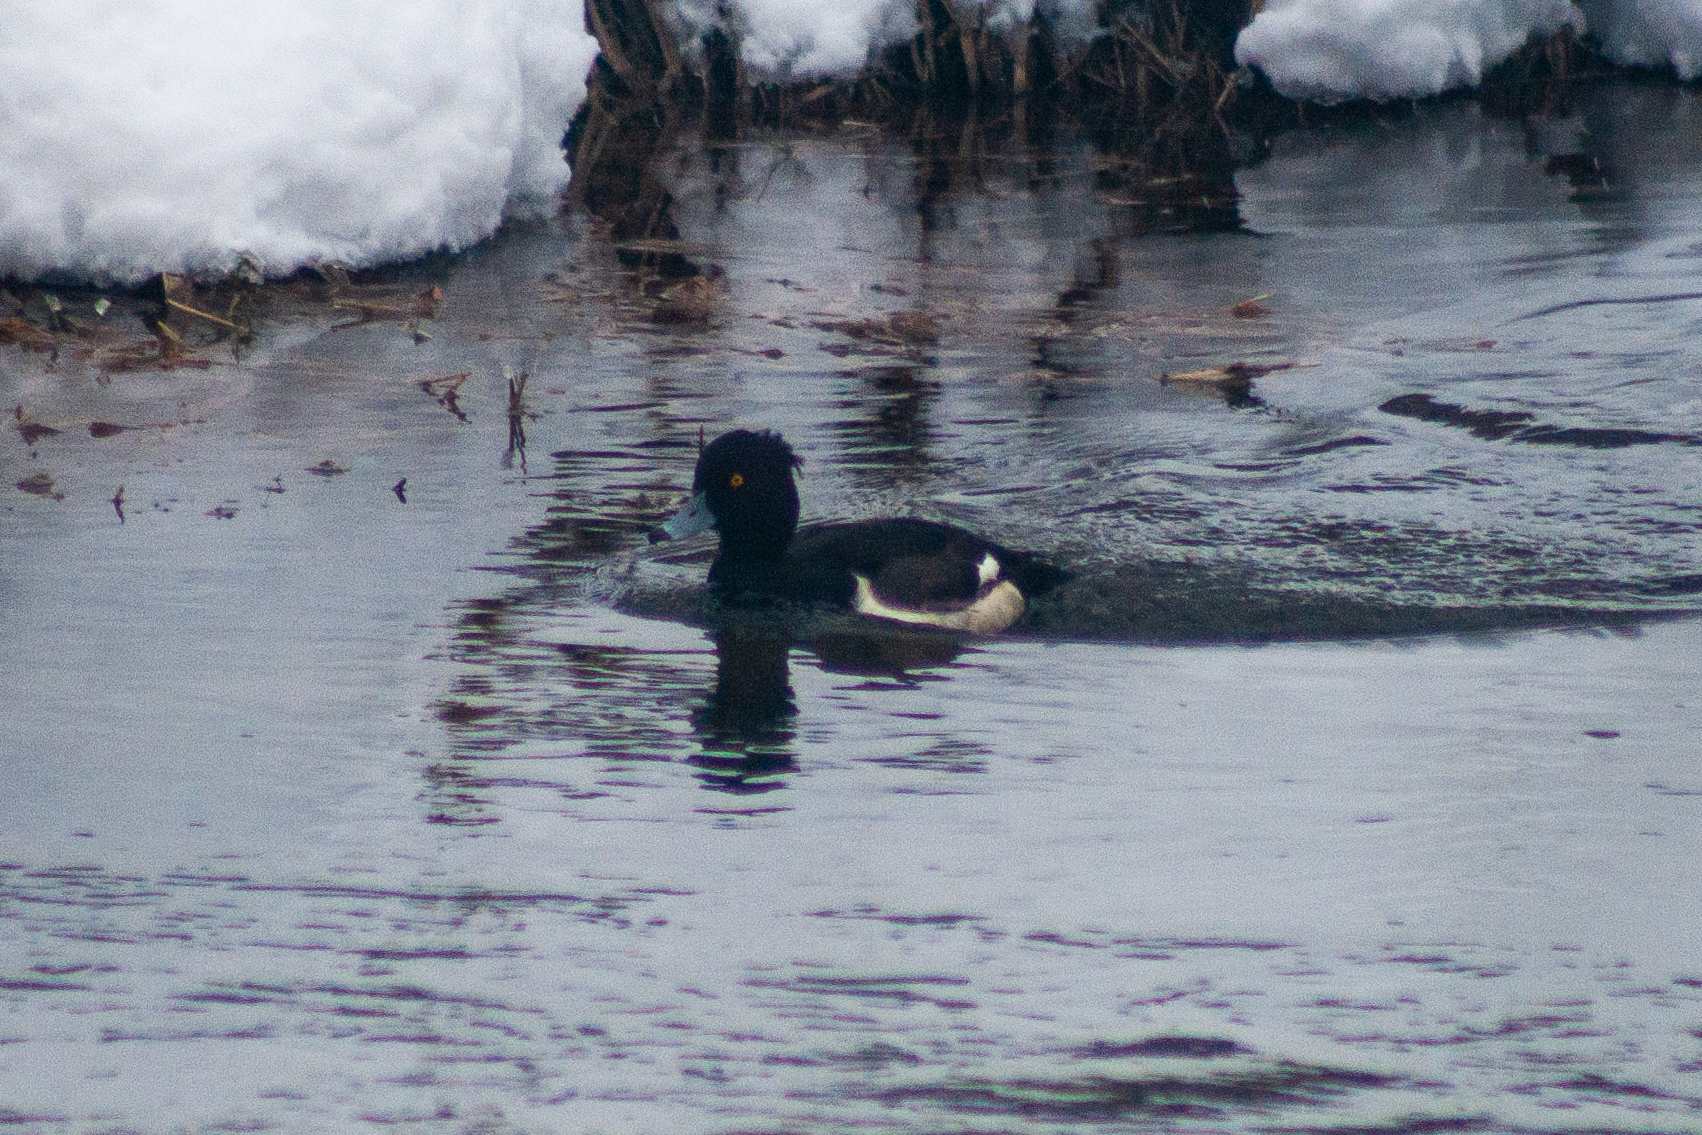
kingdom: Animalia
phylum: Chordata
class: Aves
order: Anseriformes
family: Anatidae
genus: Aythya
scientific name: Aythya fuligula
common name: Tufted duck
